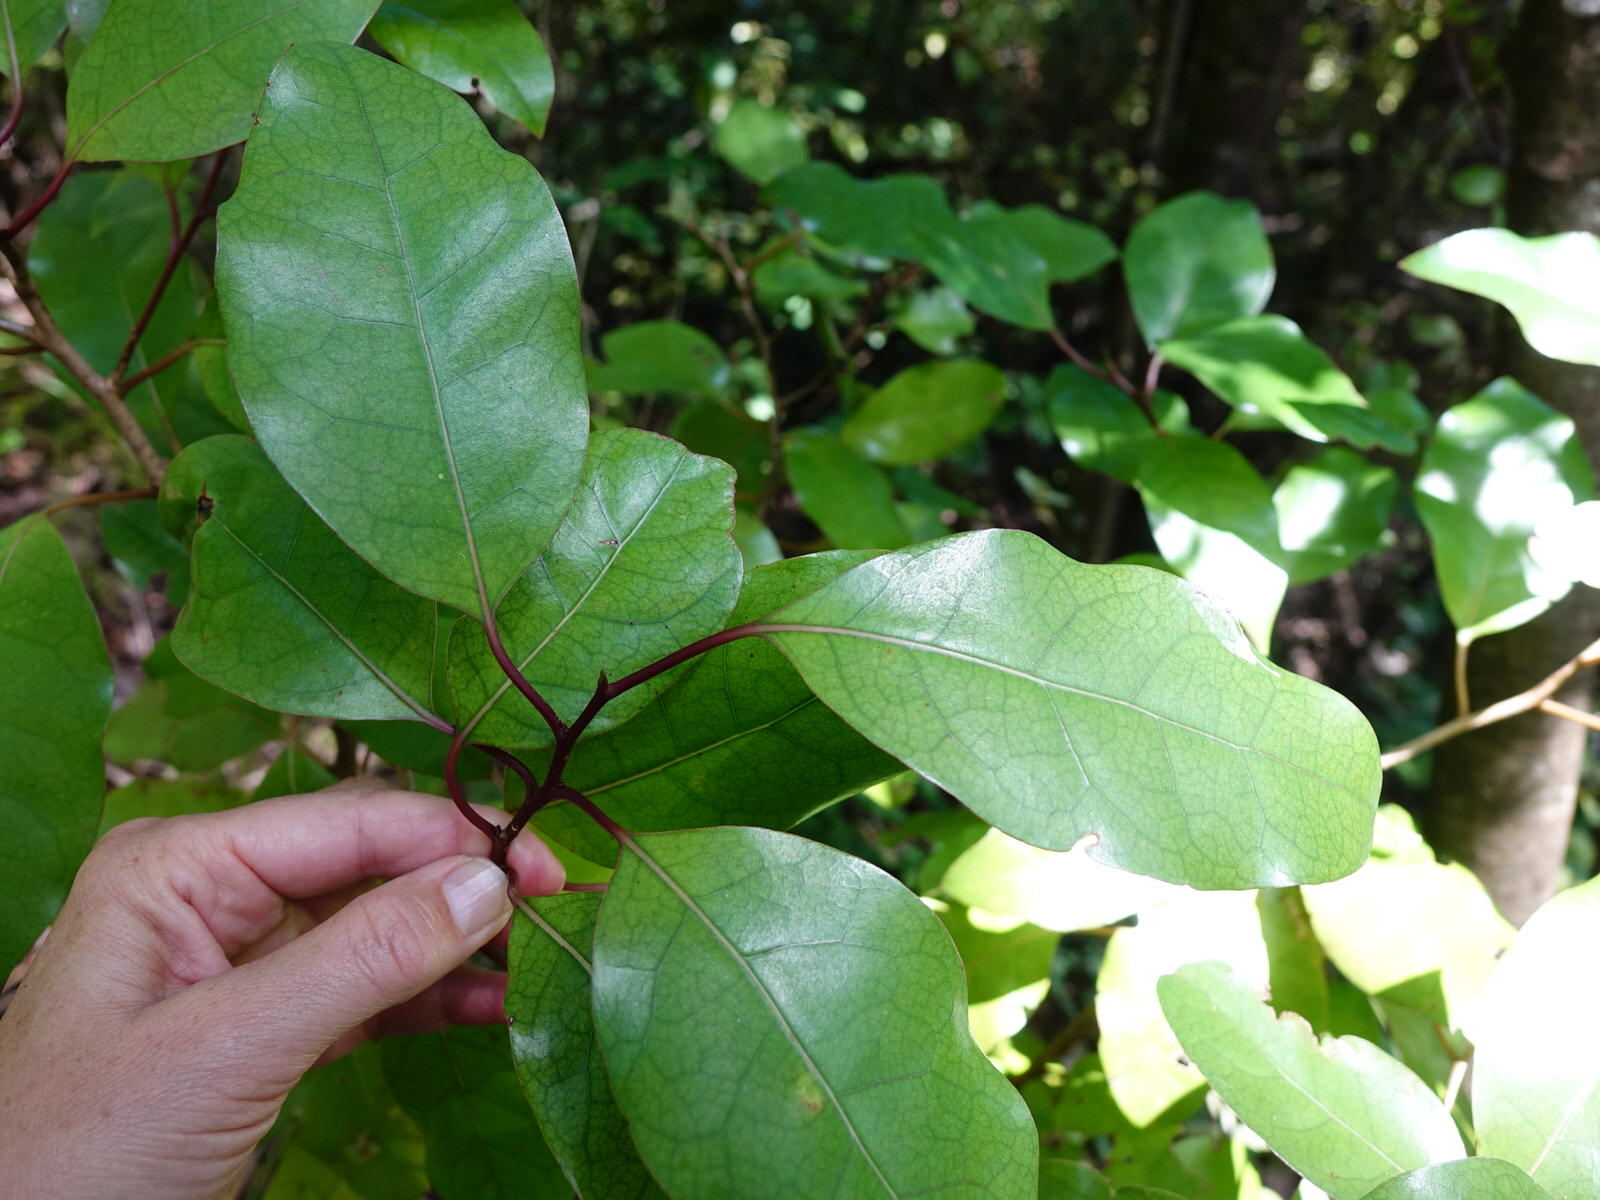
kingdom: Plantae
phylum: Tracheophyta
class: Magnoliopsida
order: Laurales
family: Lauraceae
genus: Litsea
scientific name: Litsea calicaris
